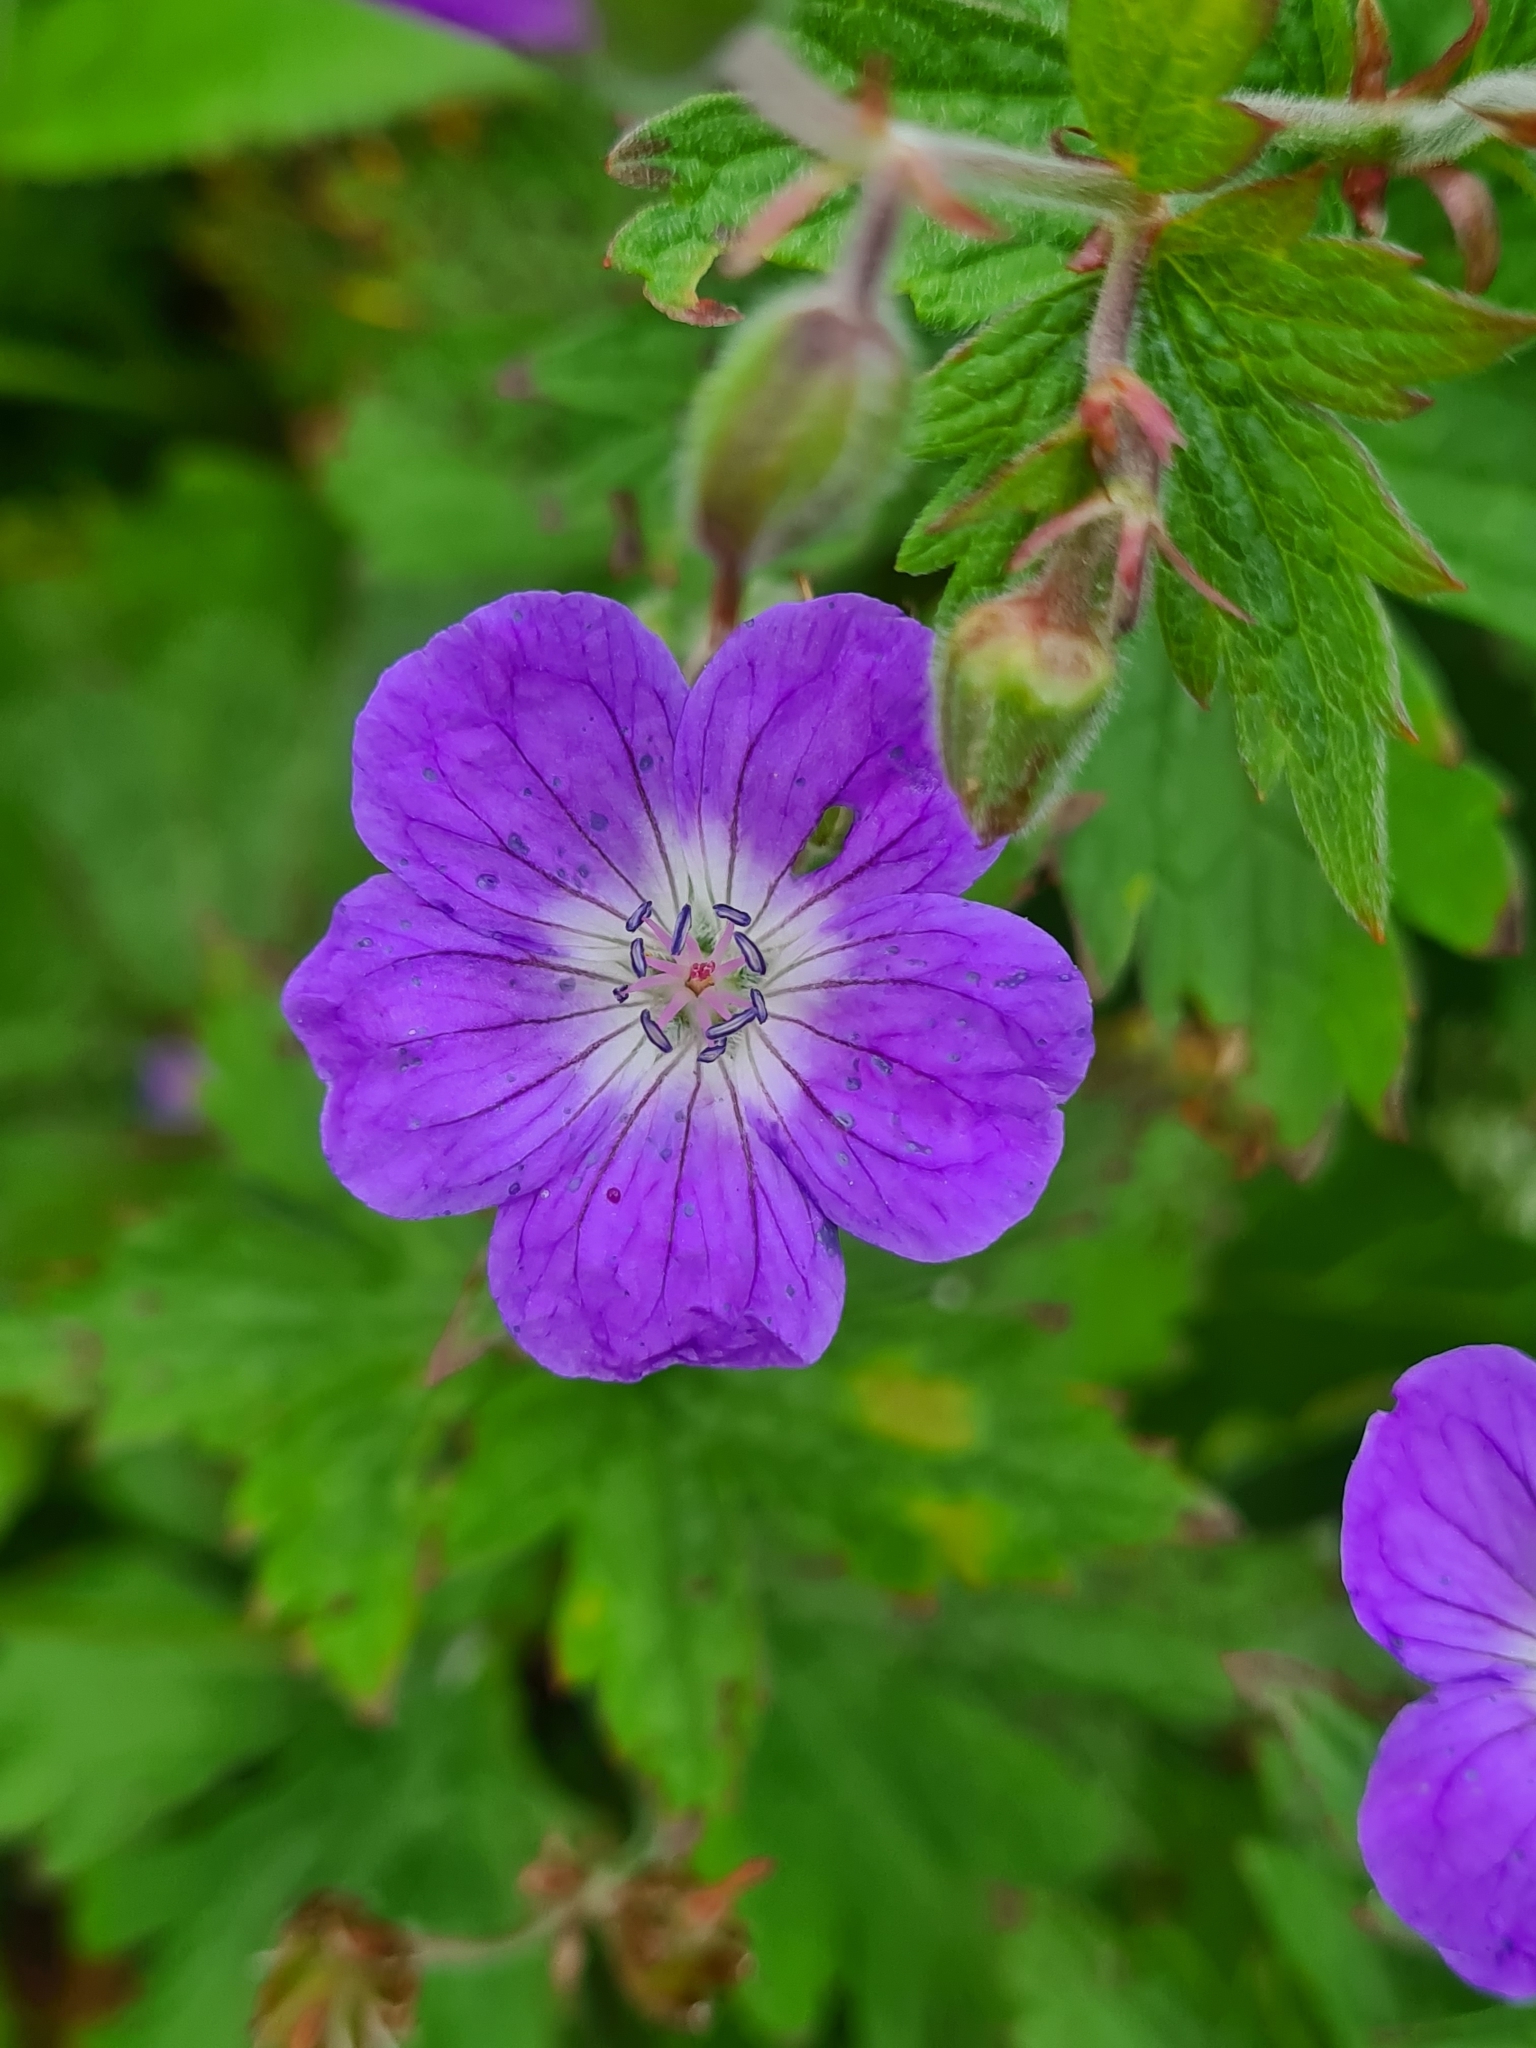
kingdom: Plantae
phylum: Tracheophyta
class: Magnoliopsida
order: Geraniales
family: Geraniaceae
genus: Geranium
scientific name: Geranium sylvaticum
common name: Wood crane's-bill
